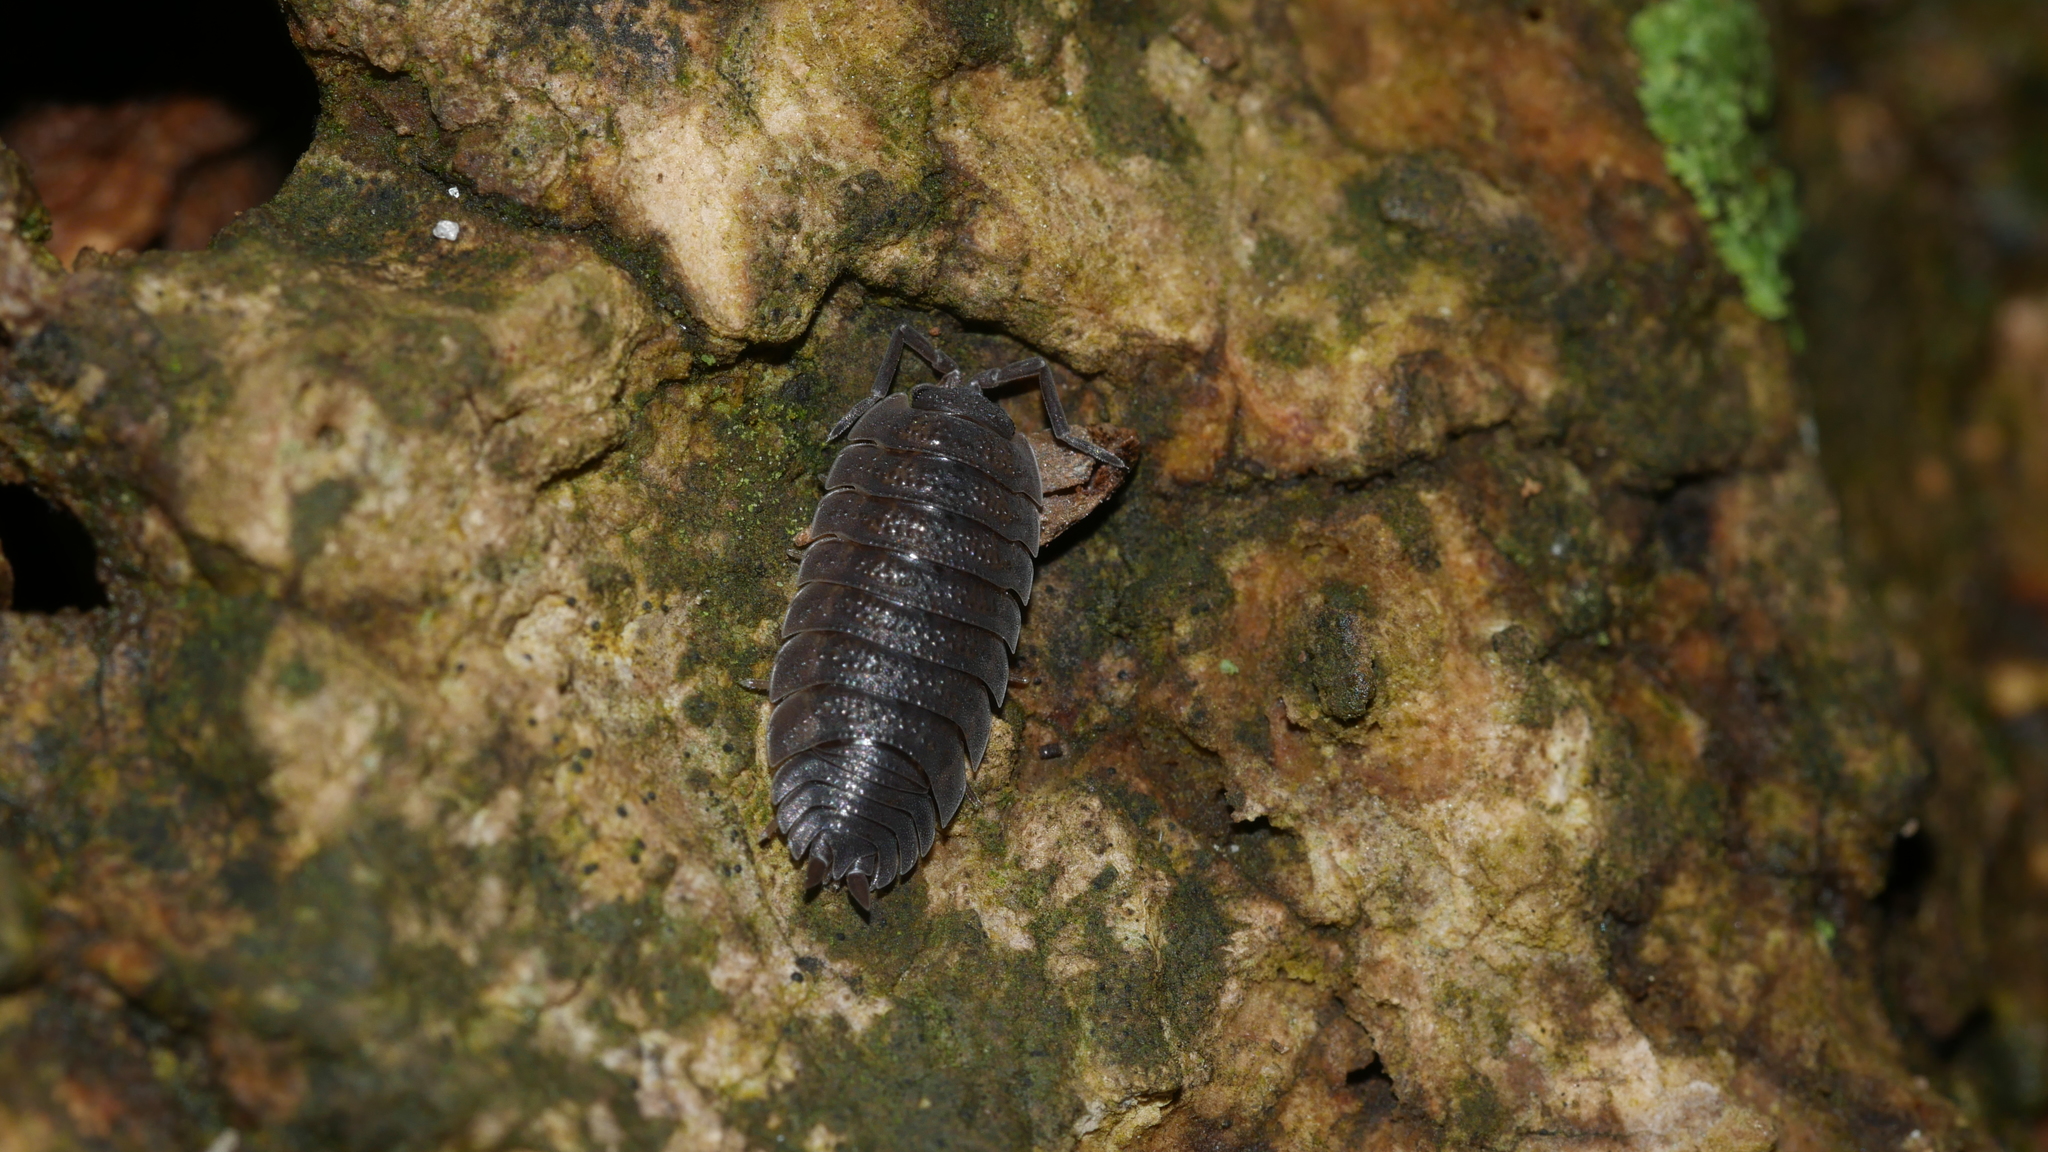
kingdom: Animalia
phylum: Arthropoda
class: Malacostraca
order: Isopoda
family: Porcellionidae
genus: Porcellio
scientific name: Porcellio scaber
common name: Common rough woodlouse
